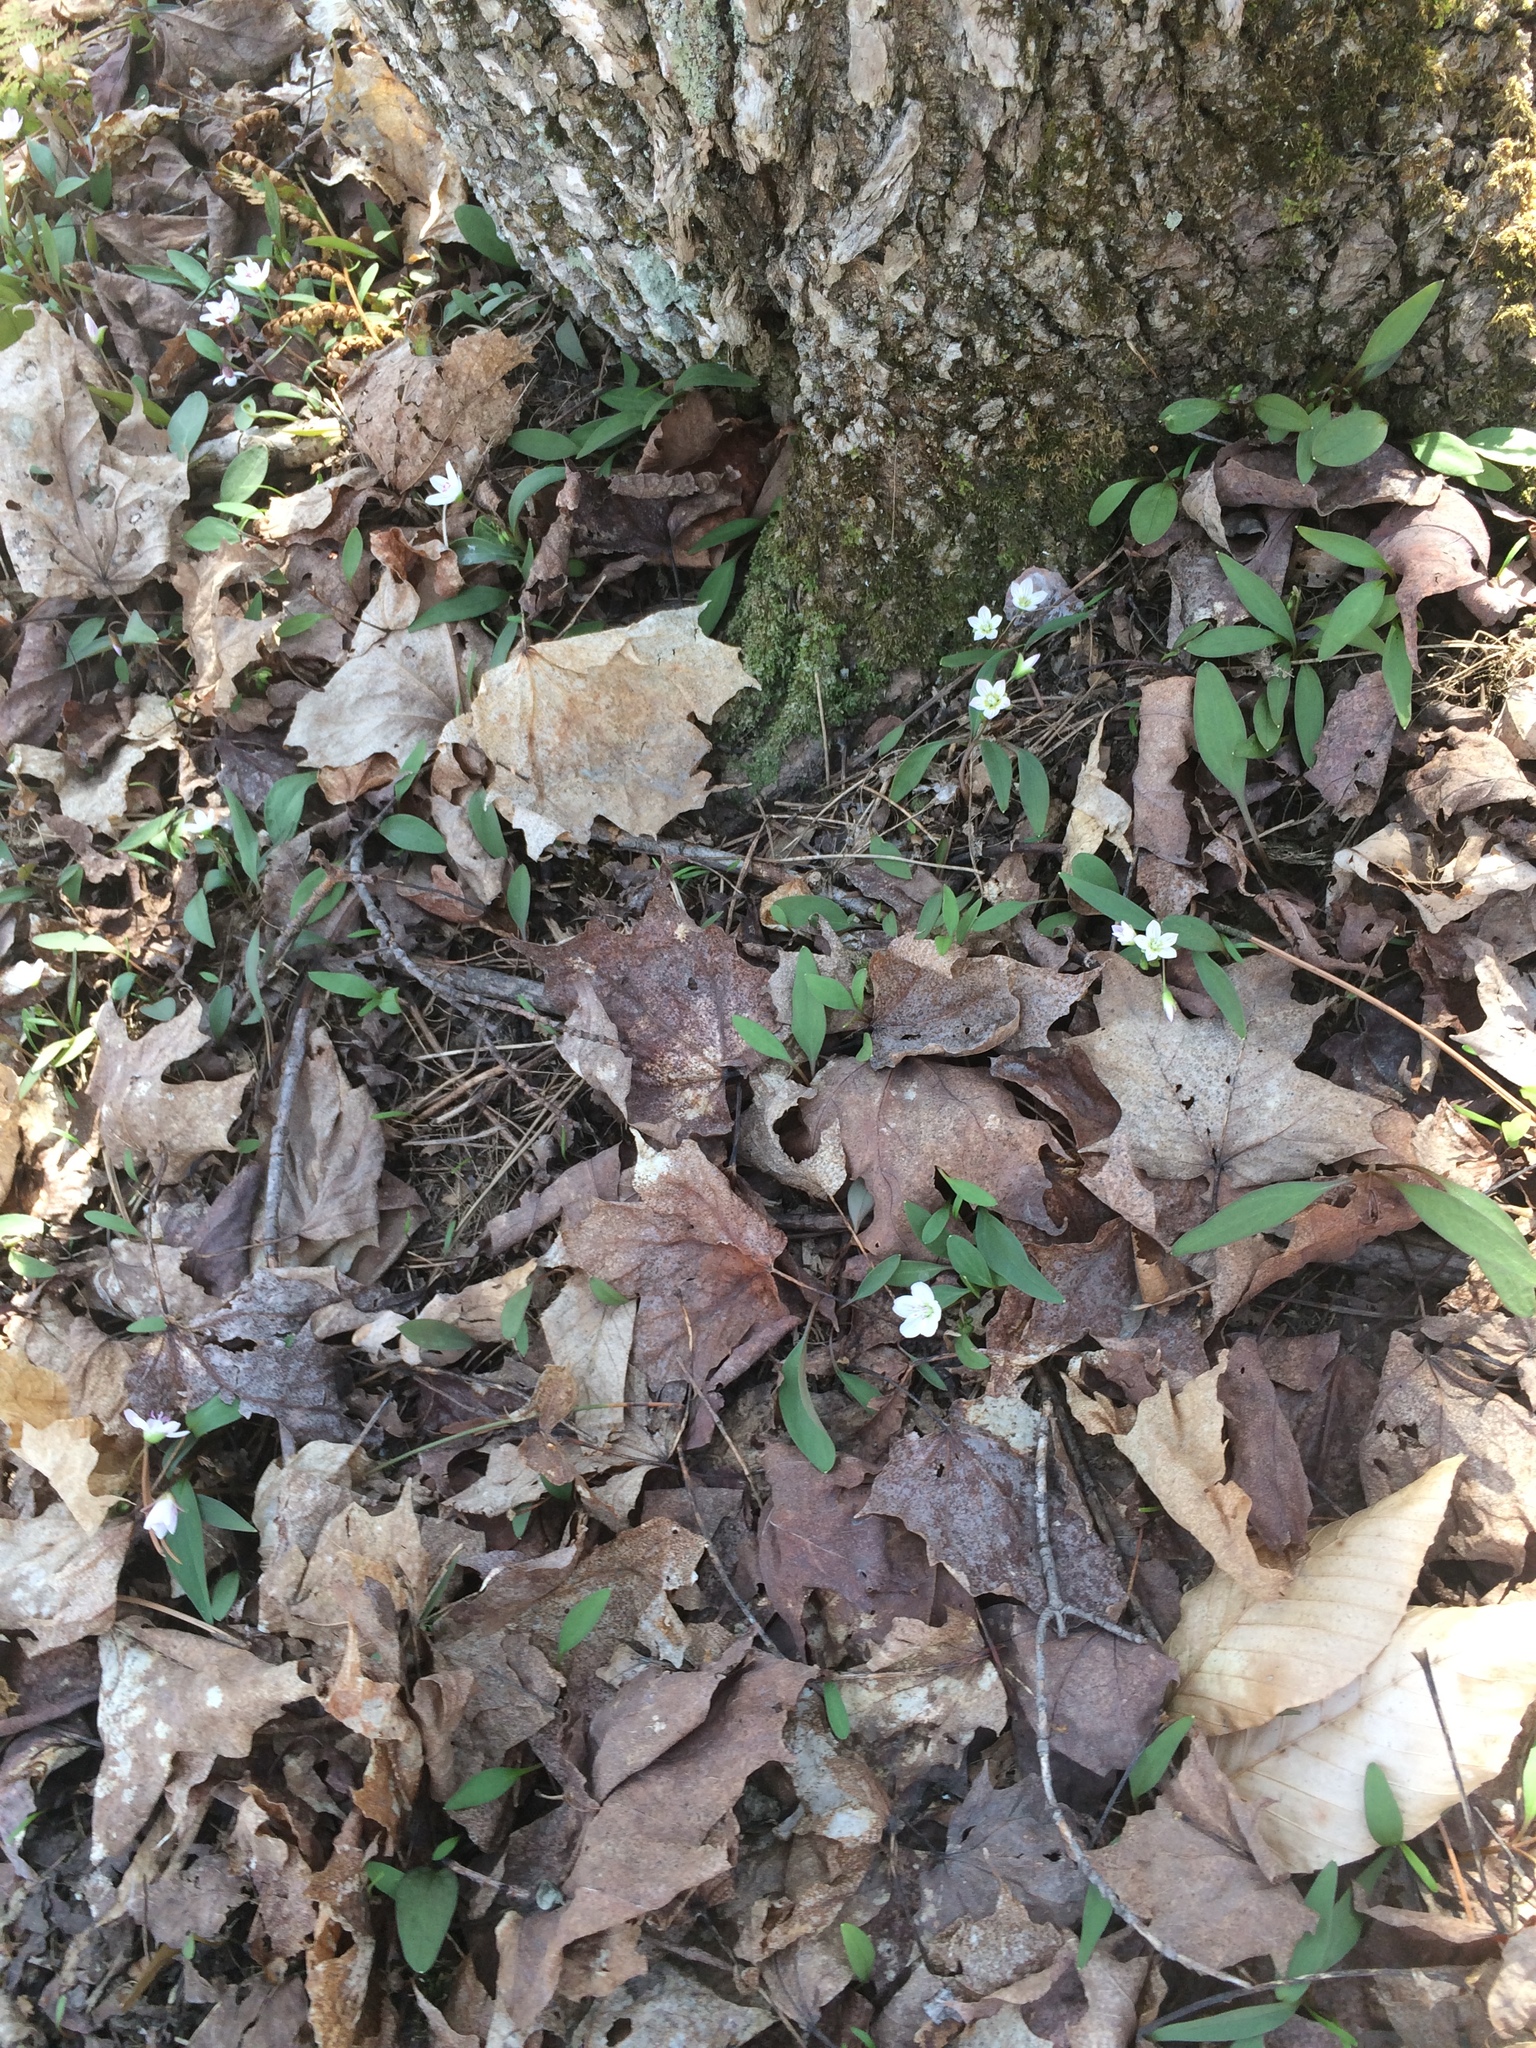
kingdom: Plantae
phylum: Tracheophyta
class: Magnoliopsida
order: Caryophyllales
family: Montiaceae
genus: Claytonia
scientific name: Claytonia caroliniana
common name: Carolina spring beauty
